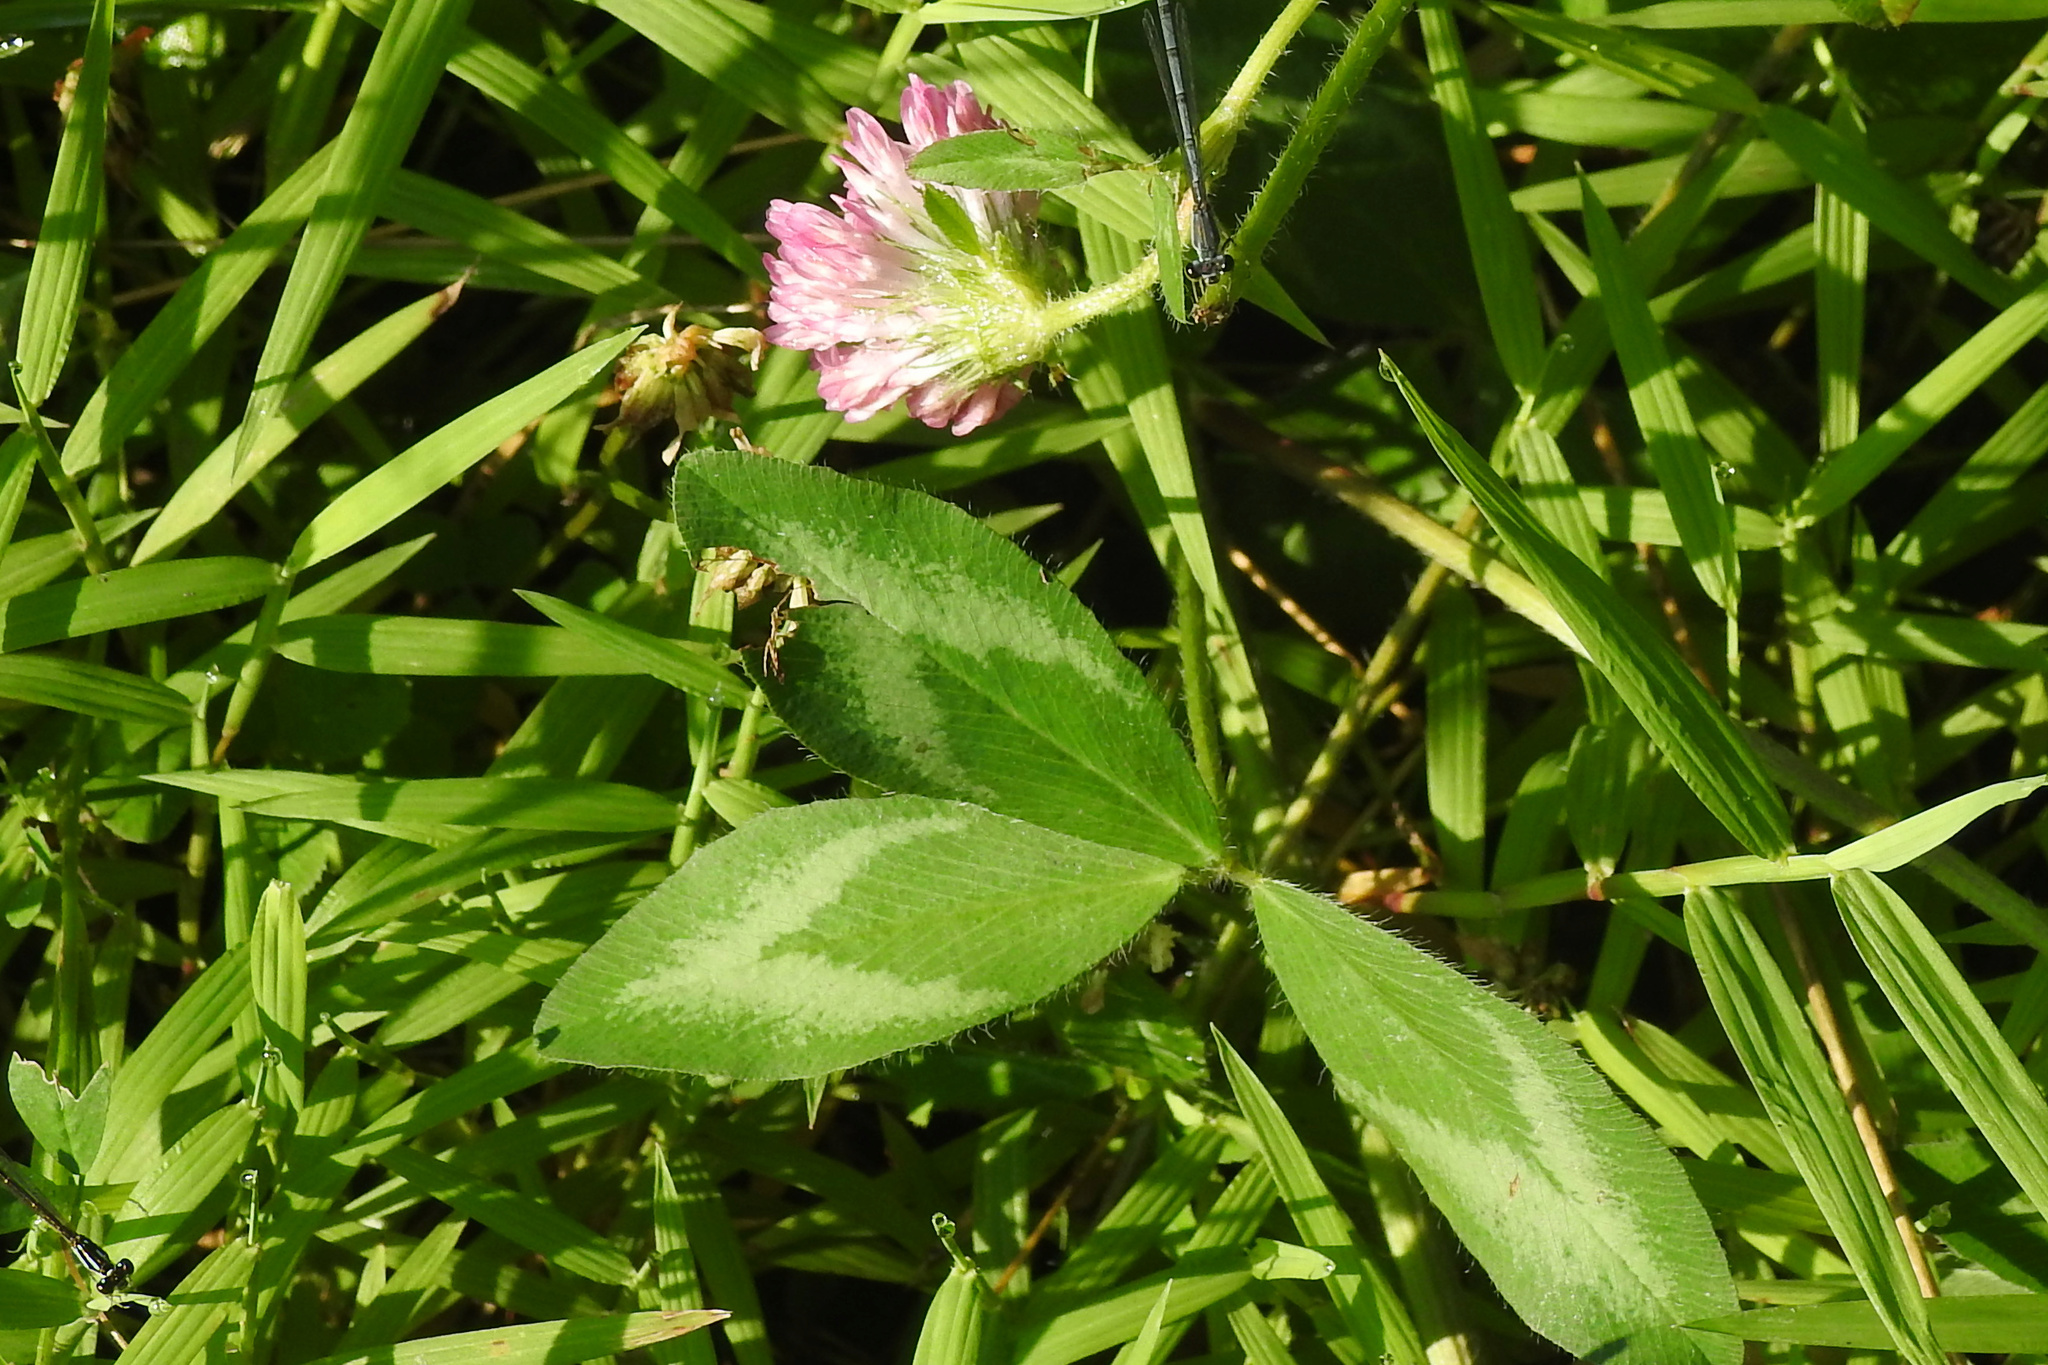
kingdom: Plantae
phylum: Tracheophyta
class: Magnoliopsida
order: Fabales
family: Fabaceae
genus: Trifolium
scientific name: Trifolium pratense
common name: Red clover
